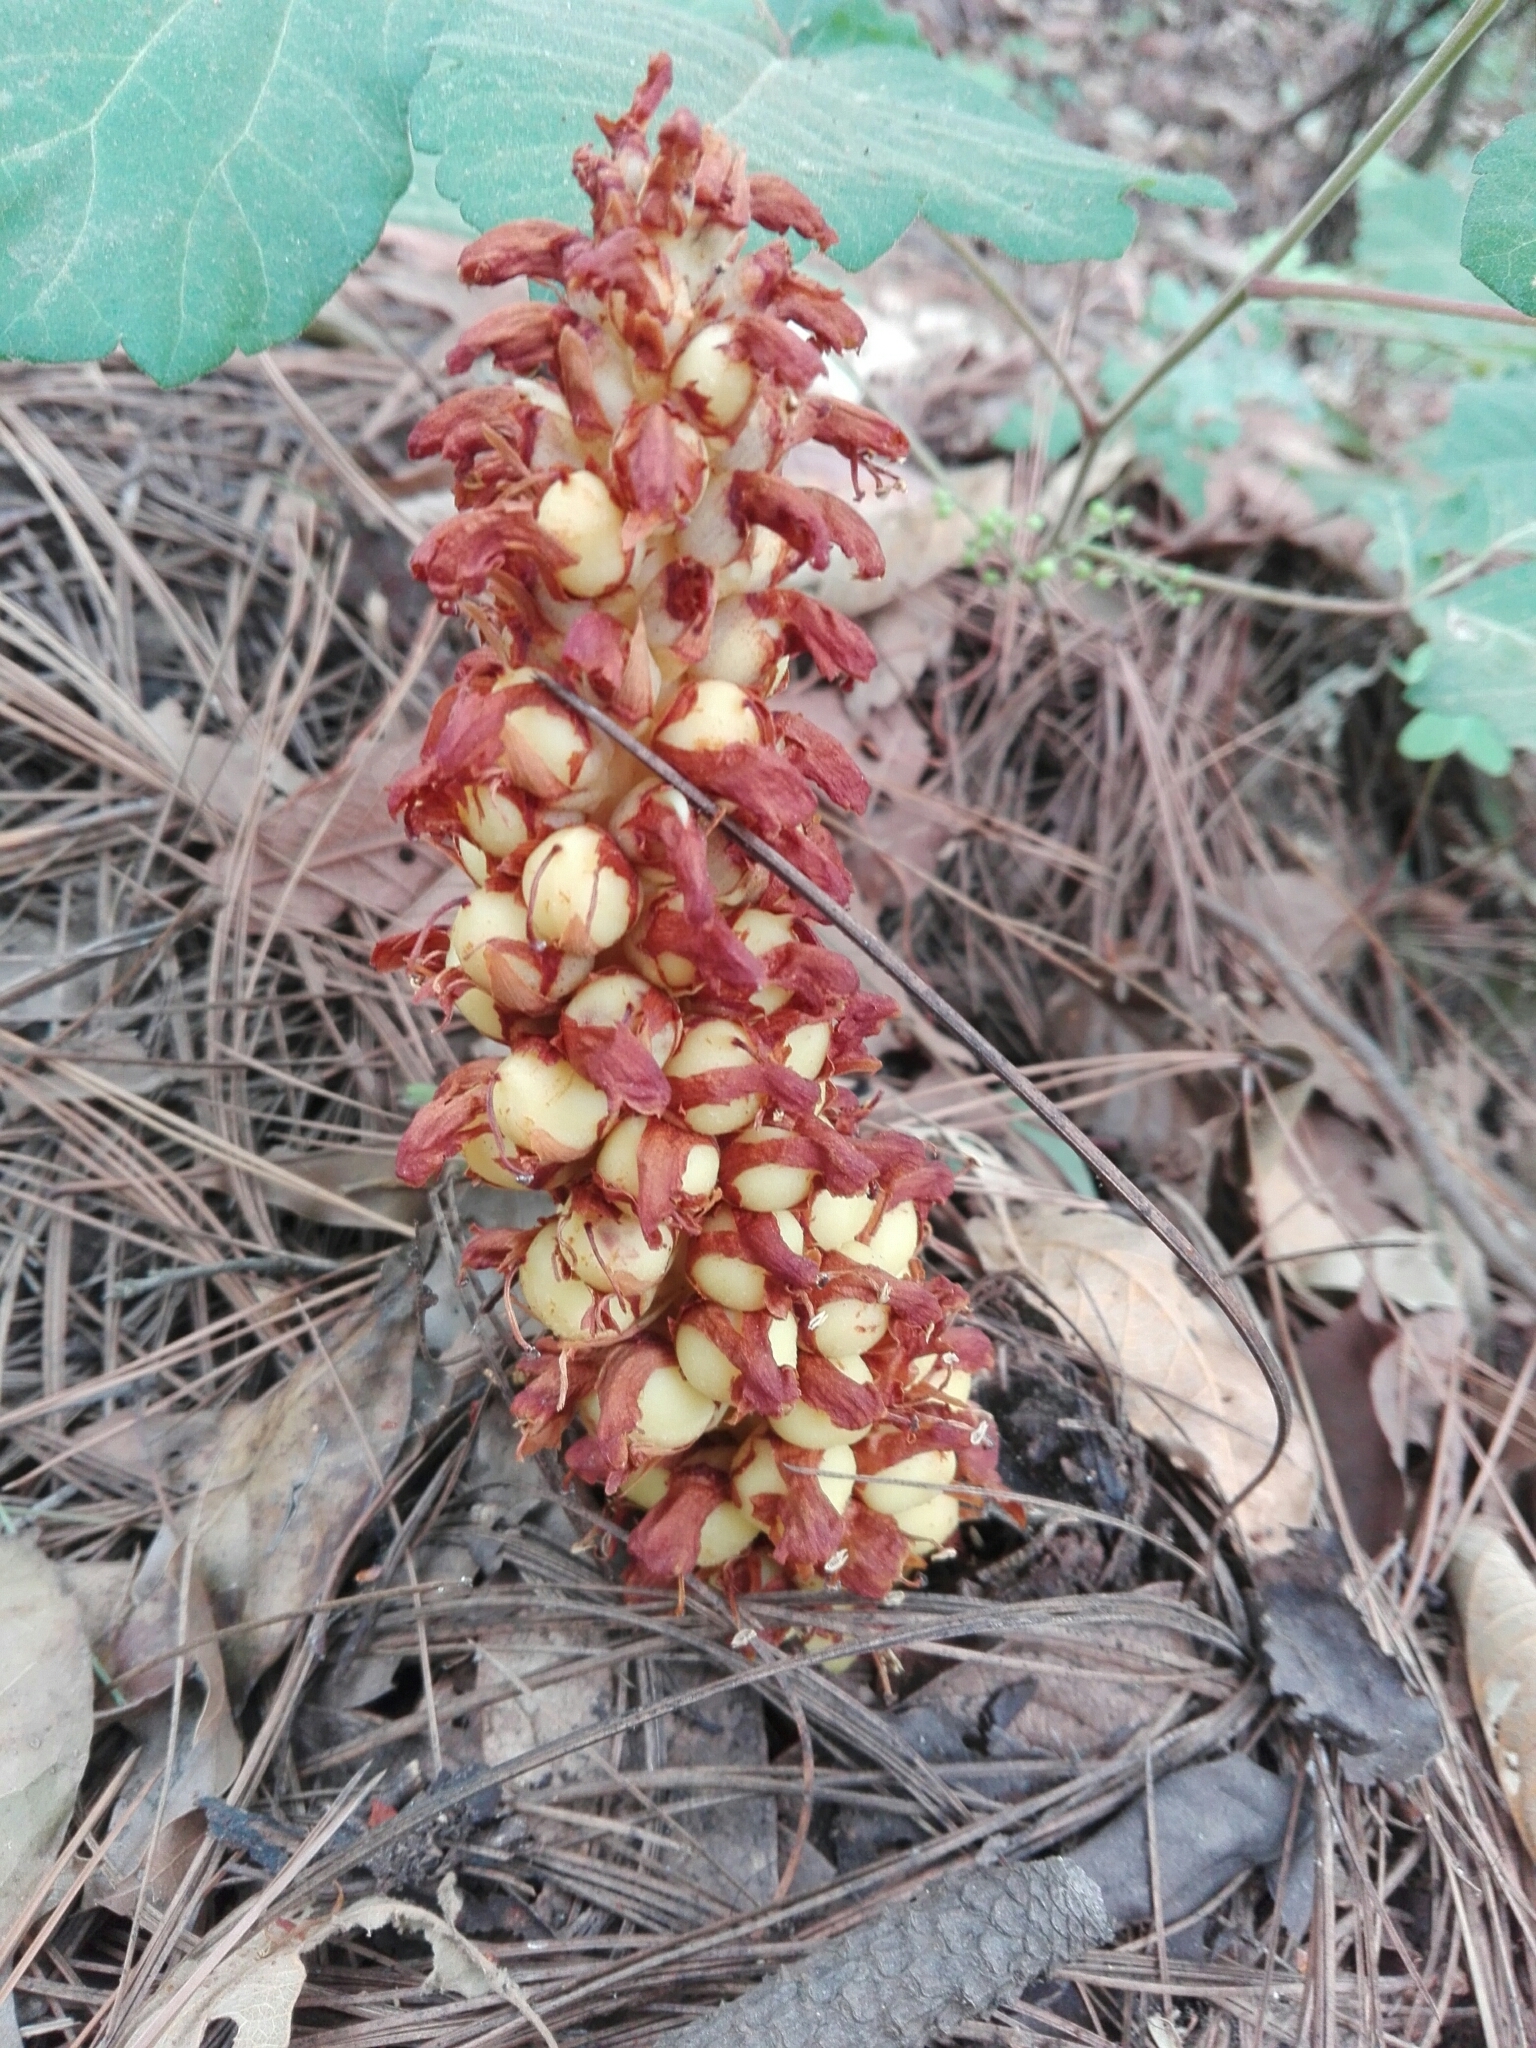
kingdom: Plantae
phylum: Tracheophyta
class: Magnoliopsida
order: Lamiales
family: Orobanchaceae
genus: Conopholis
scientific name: Conopholis alpina
